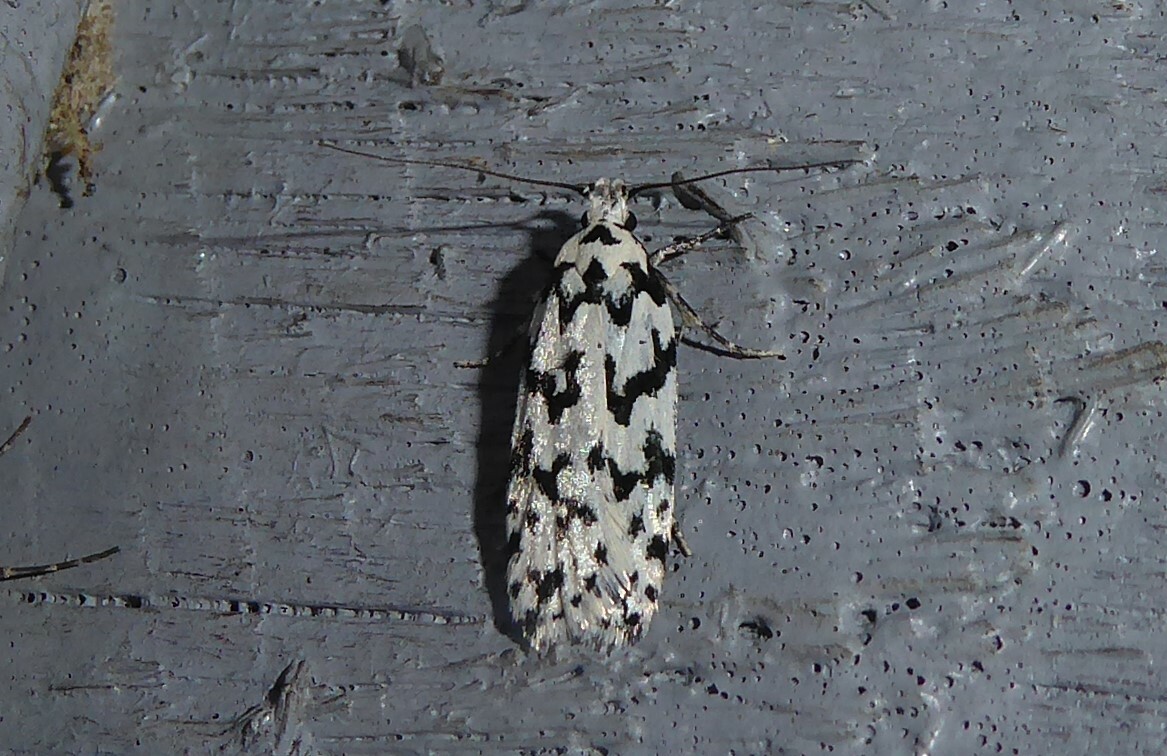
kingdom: Animalia
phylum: Arthropoda
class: Insecta
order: Lepidoptera
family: Oecophoridae
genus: Izatha
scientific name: Izatha katadiktya
